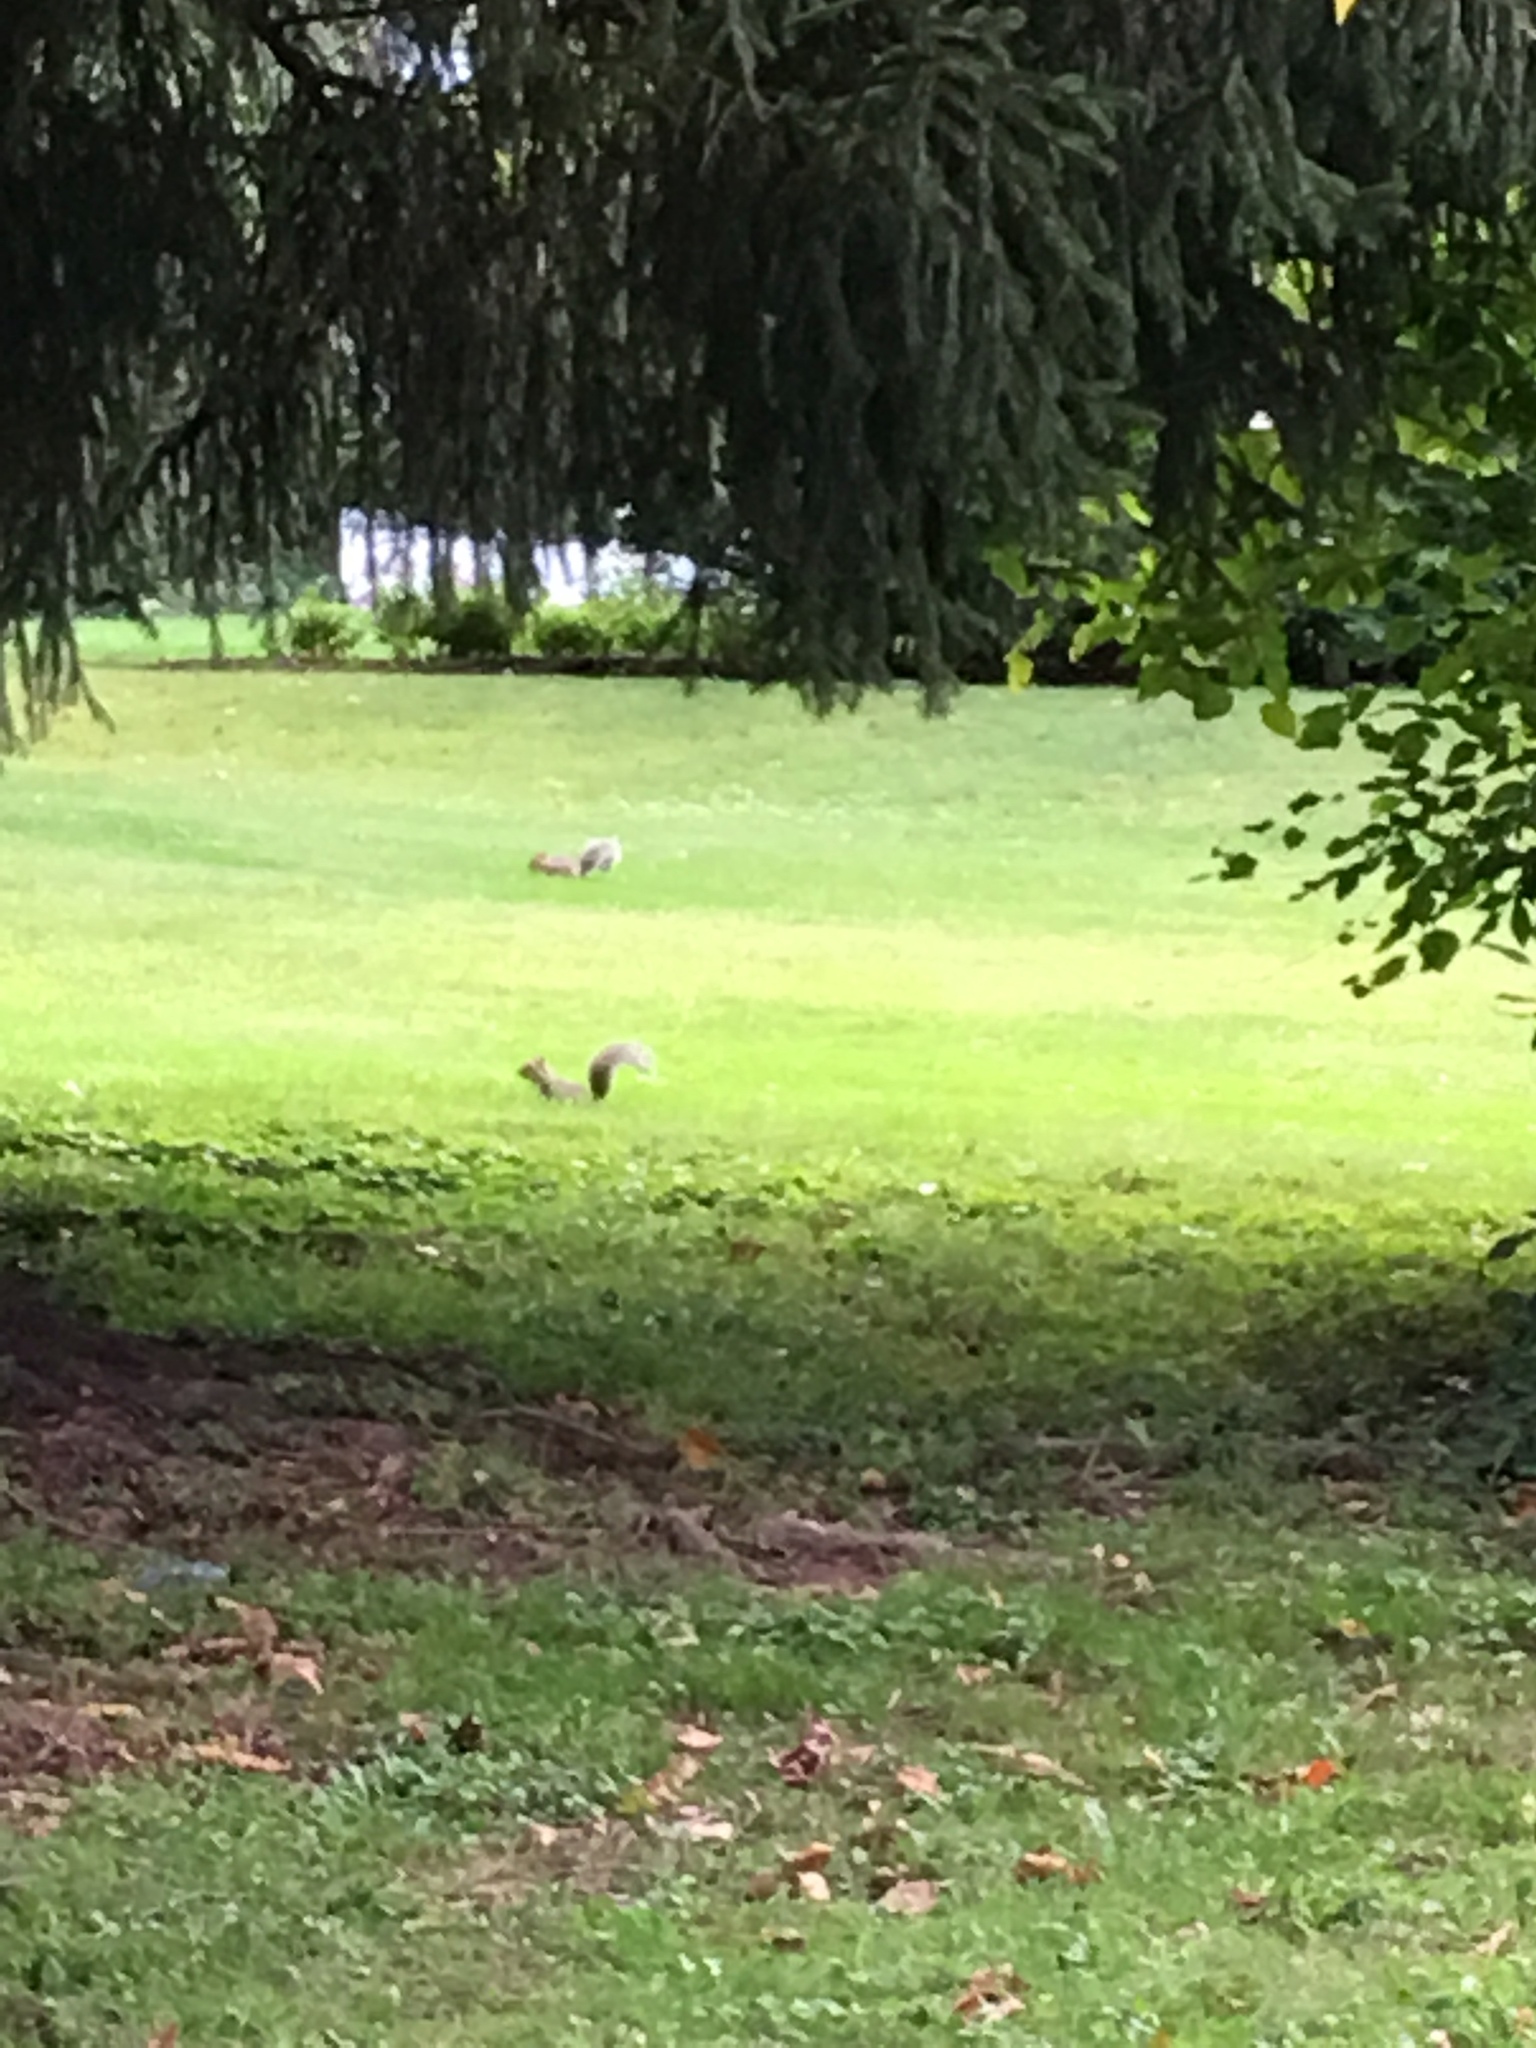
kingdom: Animalia
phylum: Chordata
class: Mammalia
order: Rodentia
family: Sciuridae
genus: Sciurus
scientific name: Sciurus carolinensis
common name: Eastern gray squirrel
